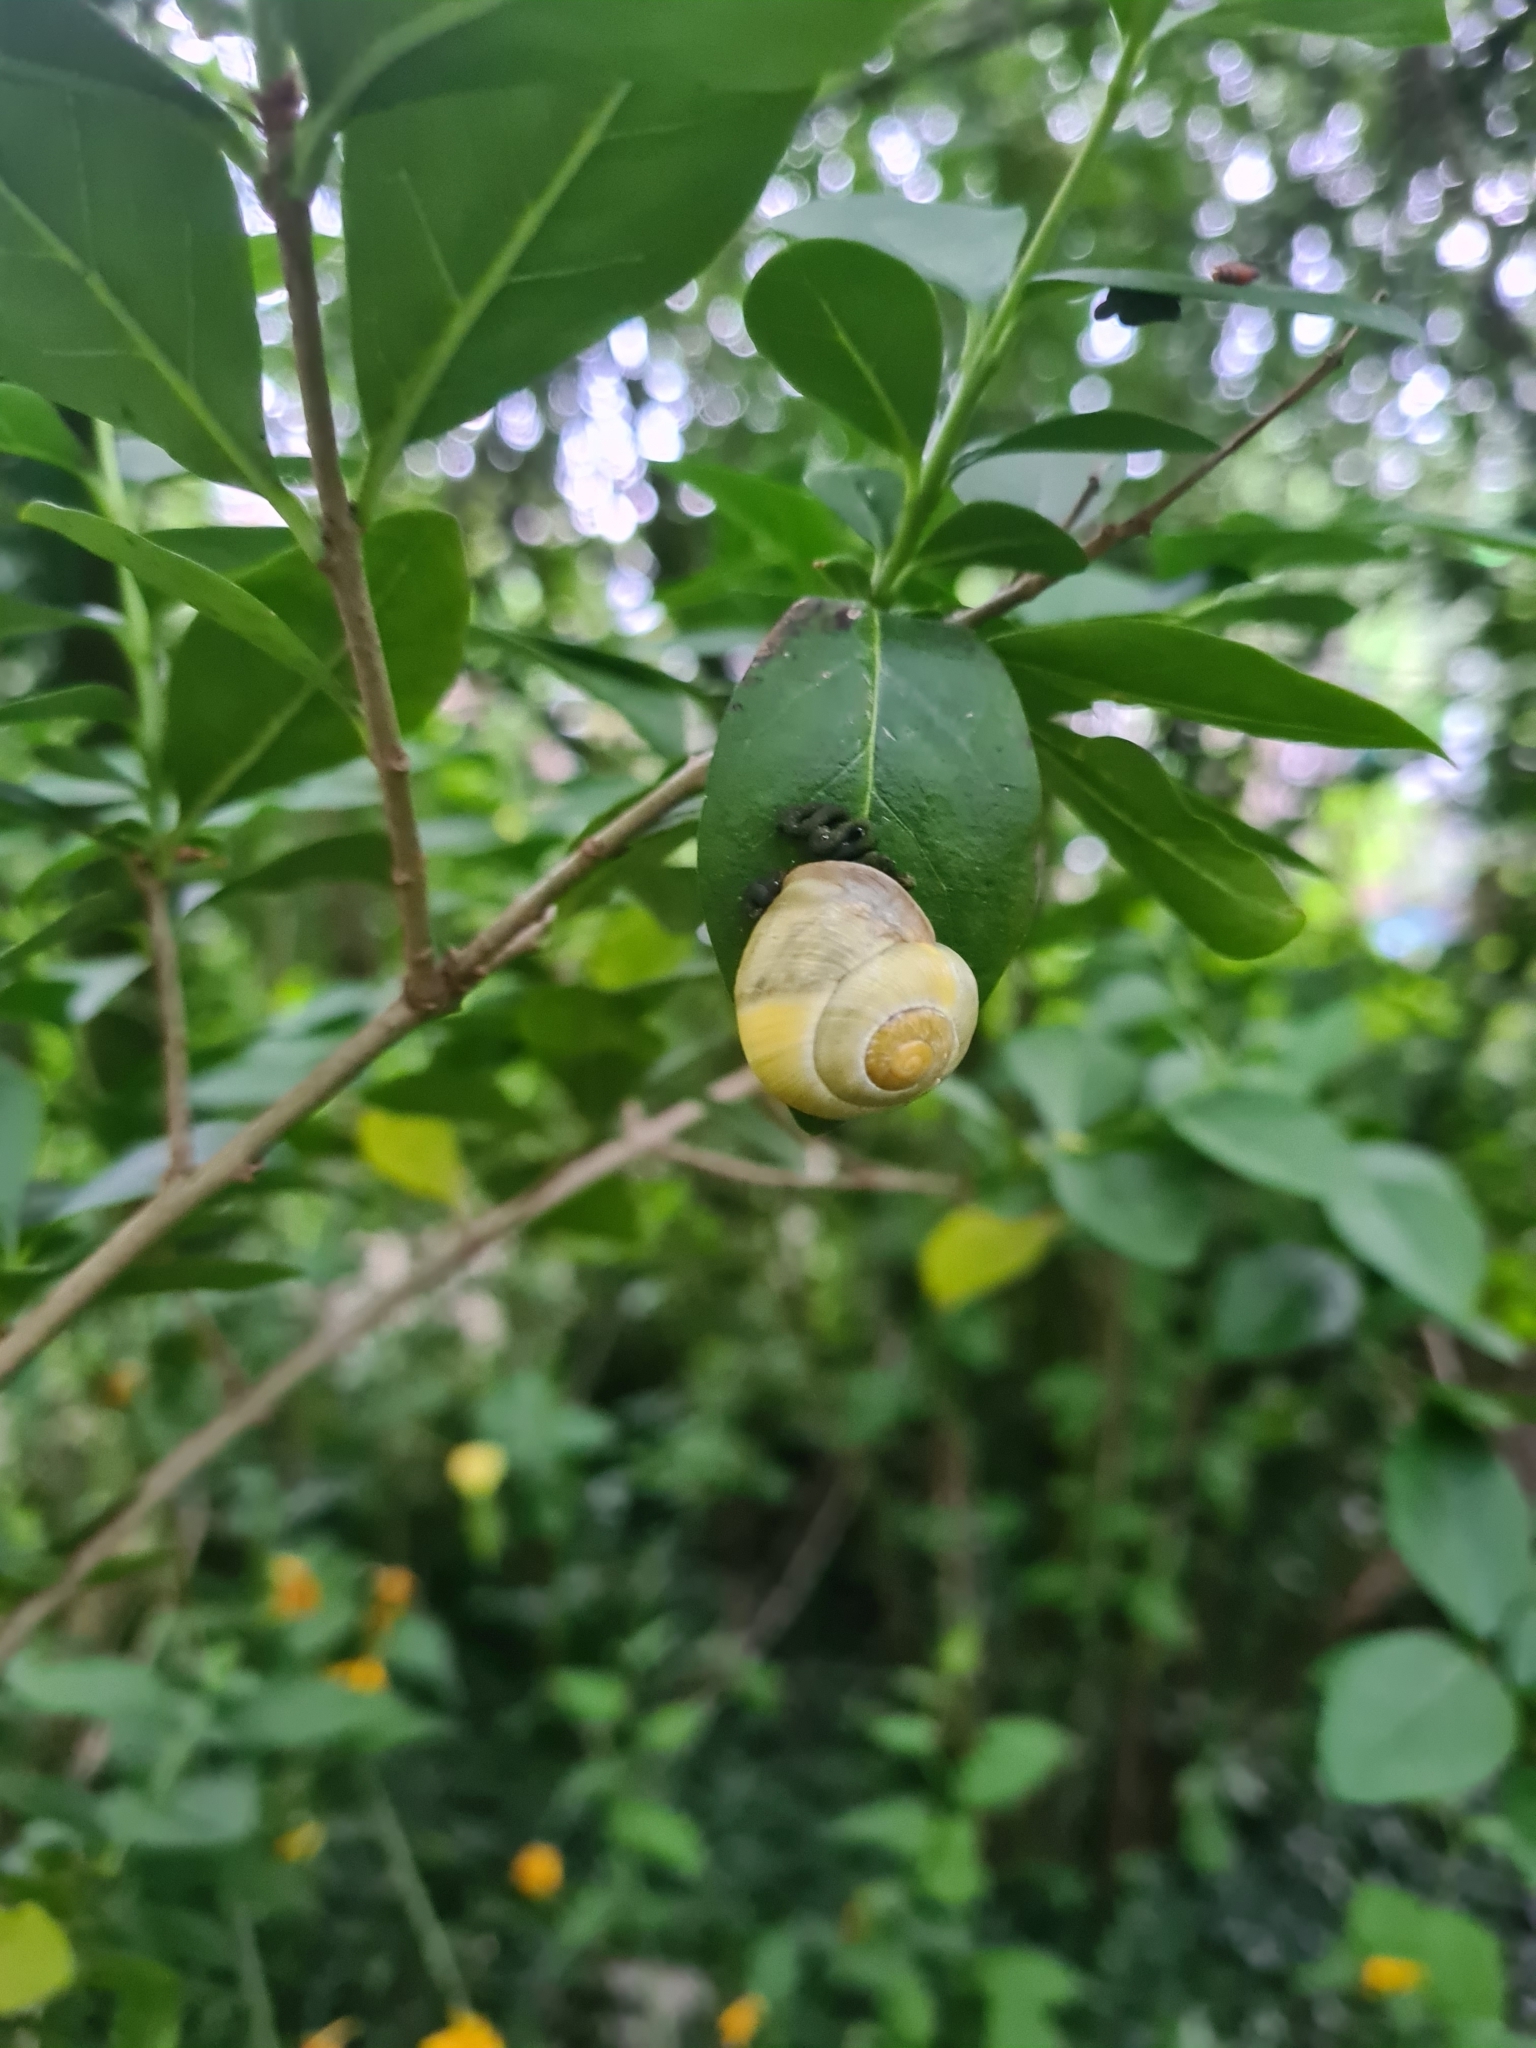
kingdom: Animalia
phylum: Mollusca
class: Gastropoda
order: Stylommatophora
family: Helicidae
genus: Cepaea
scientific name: Cepaea hortensis
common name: White-lip gardensnail
